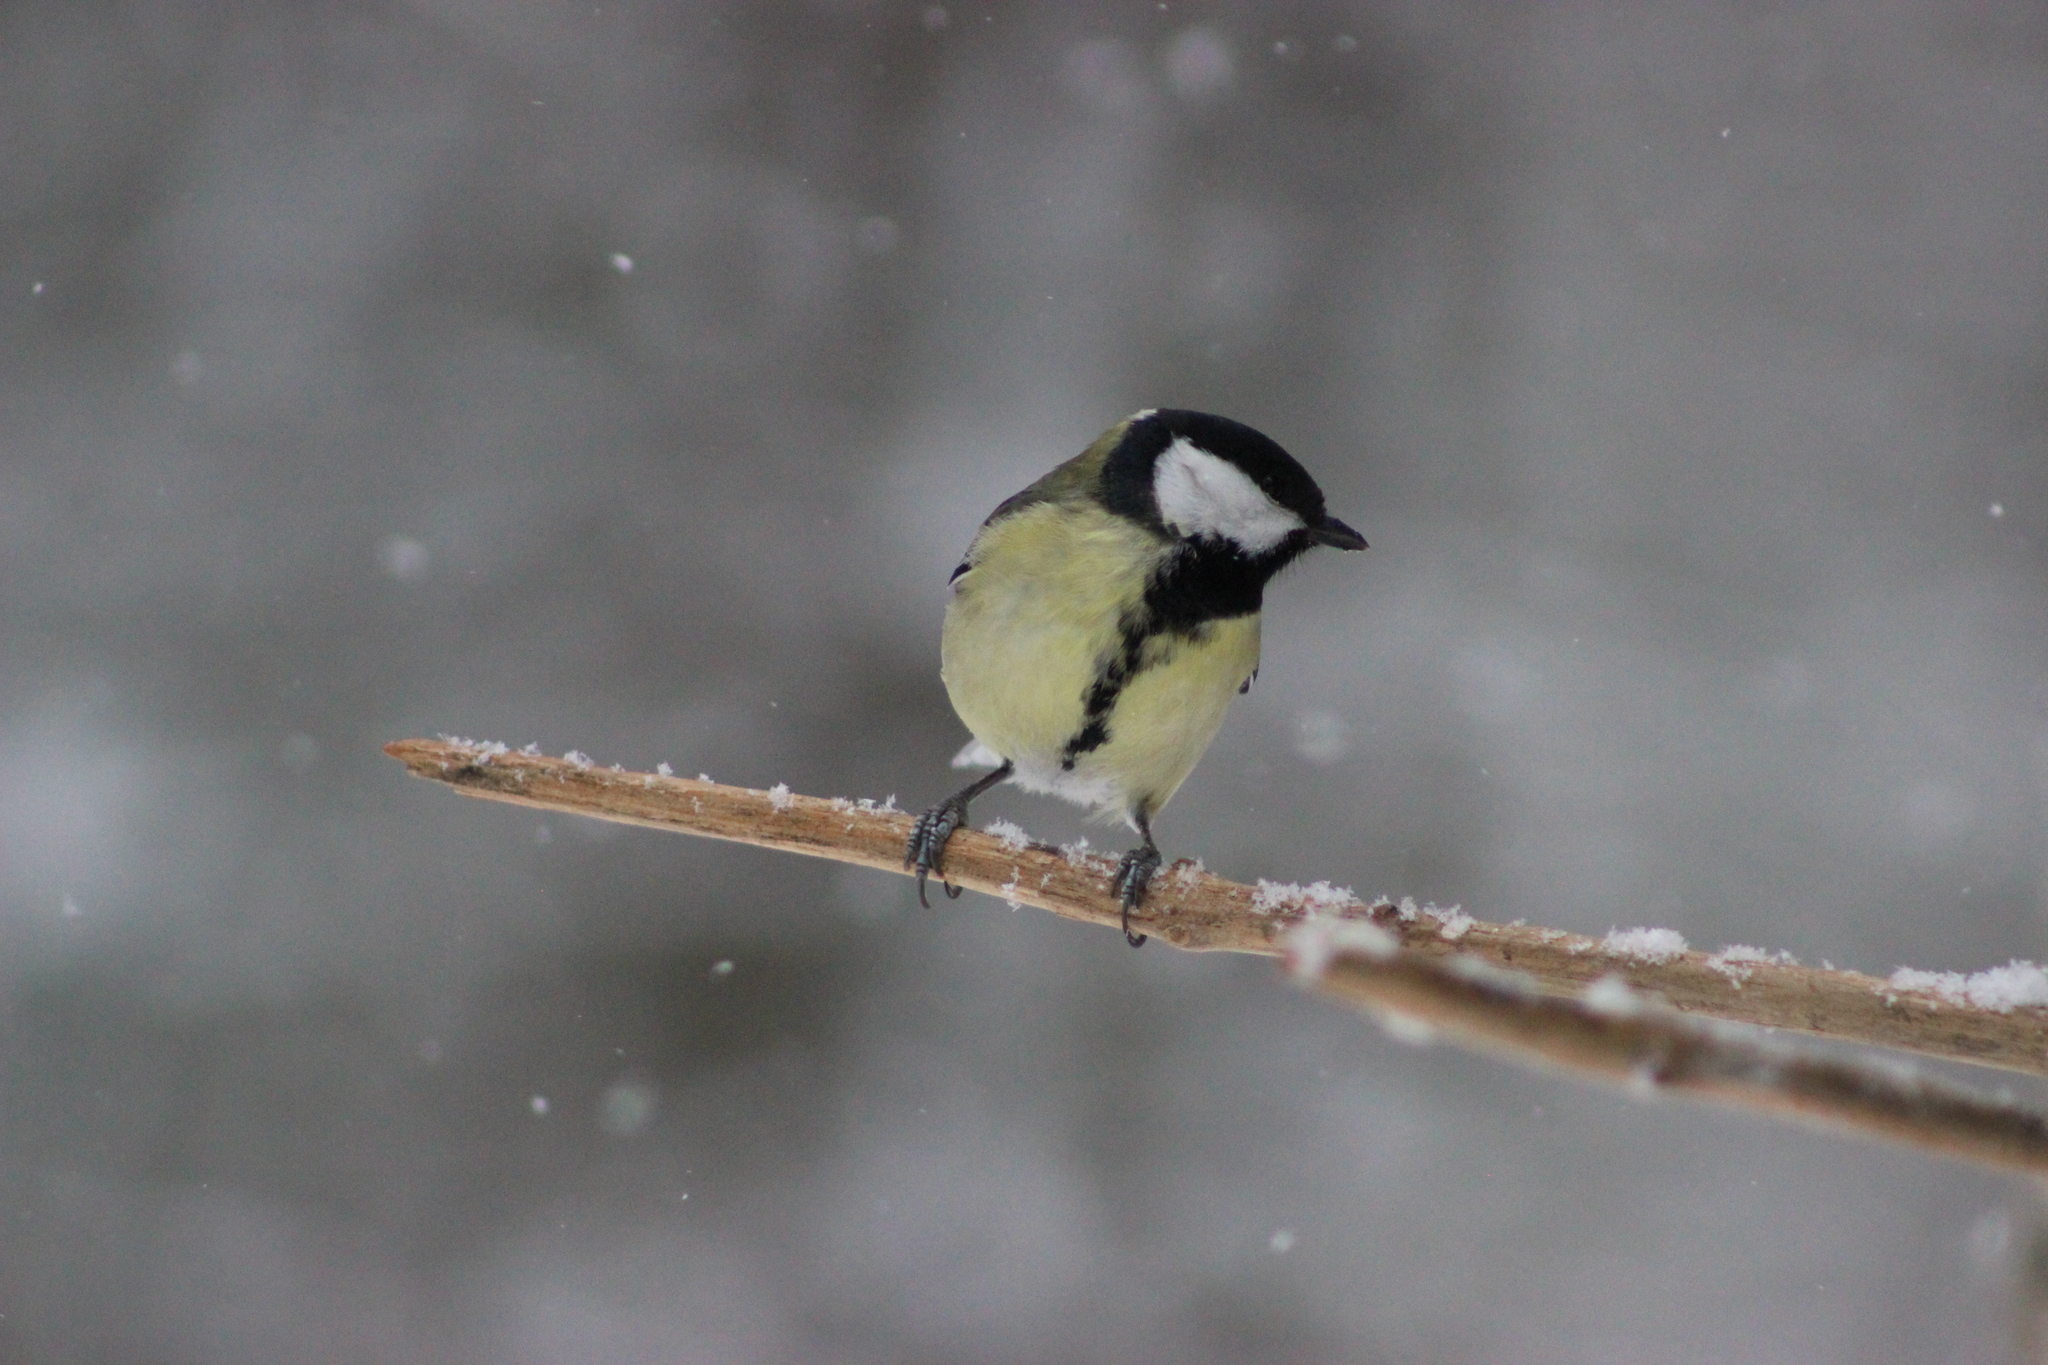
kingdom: Animalia
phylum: Chordata
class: Aves
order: Passeriformes
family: Paridae
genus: Parus
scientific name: Parus major
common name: Great tit
